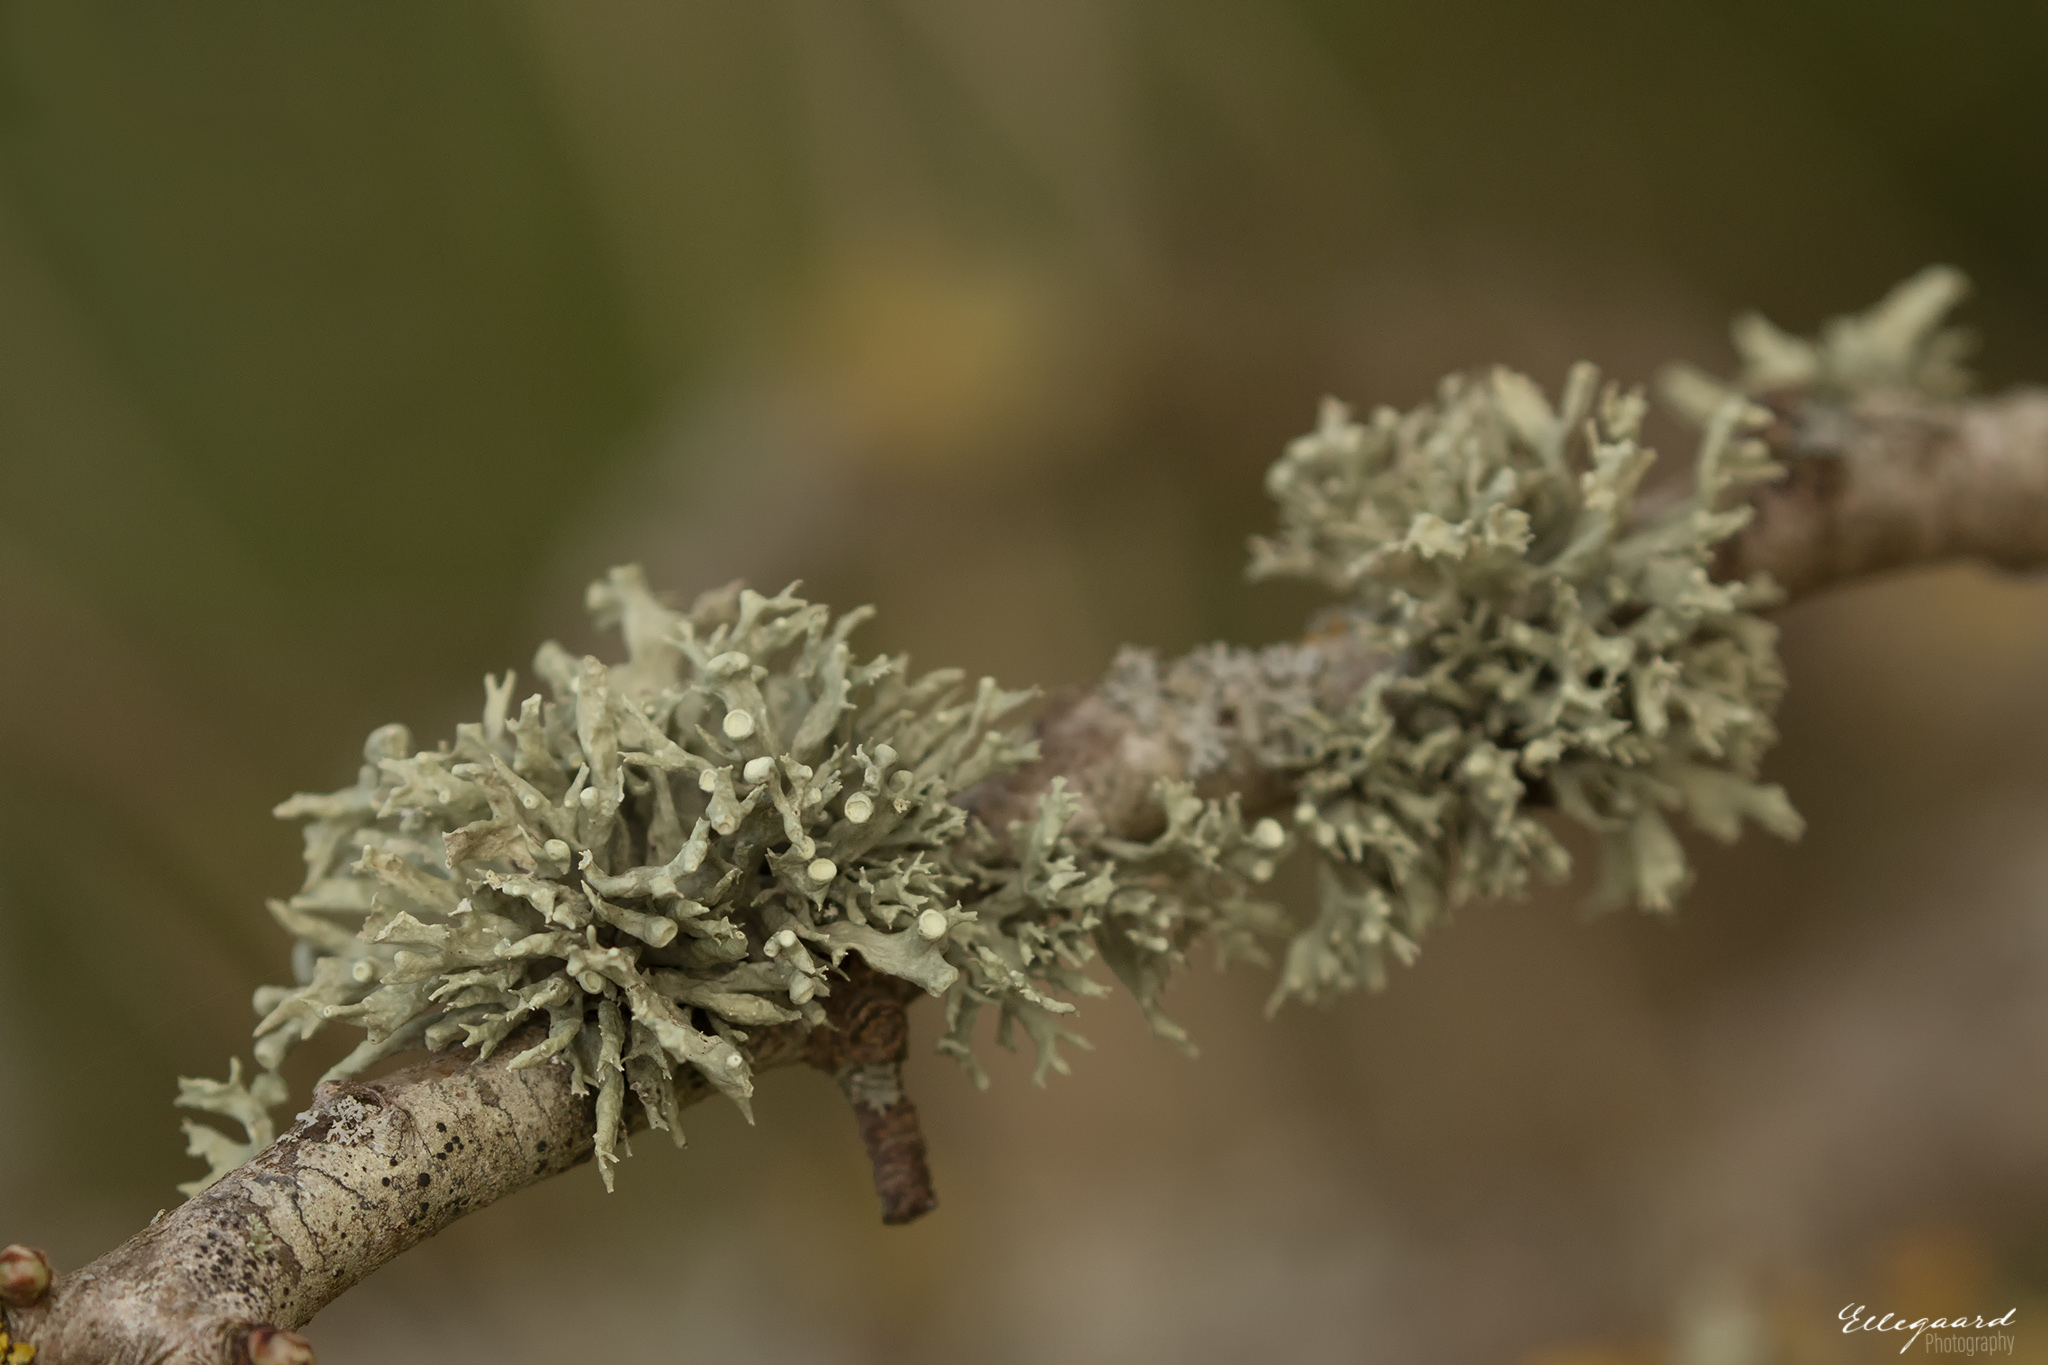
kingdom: Fungi
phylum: Ascomycota
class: Lecanoromycetes
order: Lecanorales
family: Ramalinaceae
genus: Ramalina
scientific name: Ramalina fastigiata
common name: Dotted ribbon lichen
